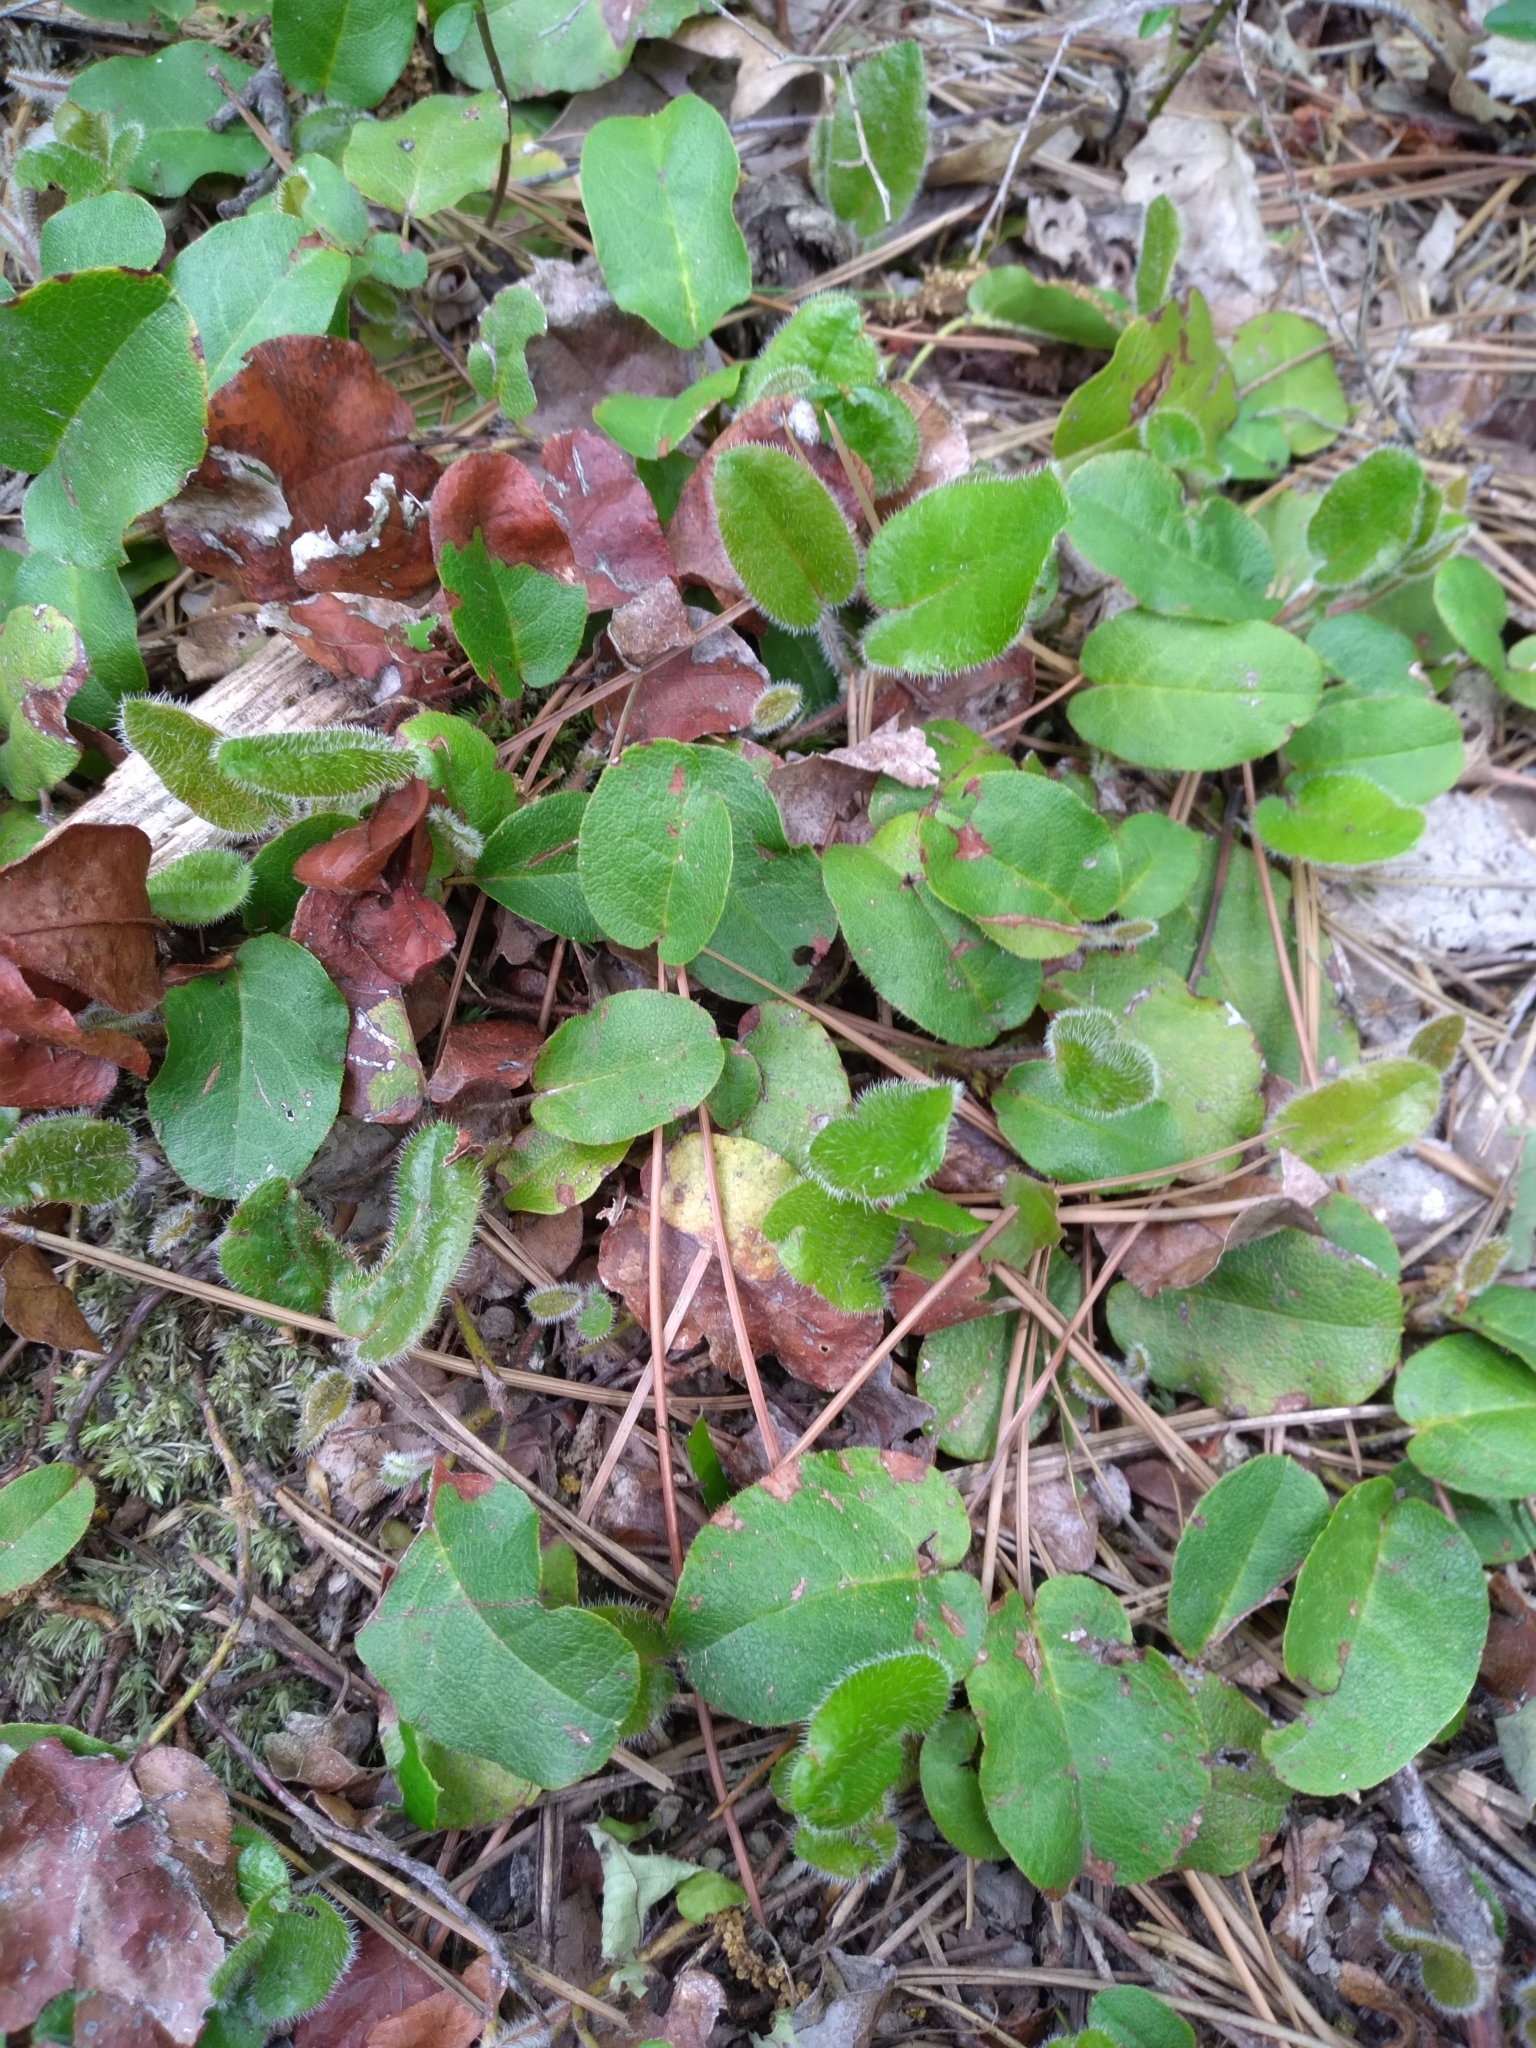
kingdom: Plantae
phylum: Tracheophyta
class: Magnoliopsida
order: Ericales
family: Ericaceae
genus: Epigaea
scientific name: Epigaea repens
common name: Gravelroot
